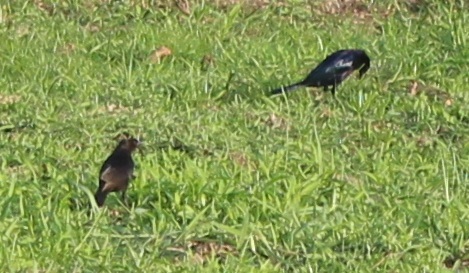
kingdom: Animalia
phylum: Chordata
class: Aves
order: Passeriformes
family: Icteridae
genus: Molothrus
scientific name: Molothrus bonariensis
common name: Shiny cowbird
